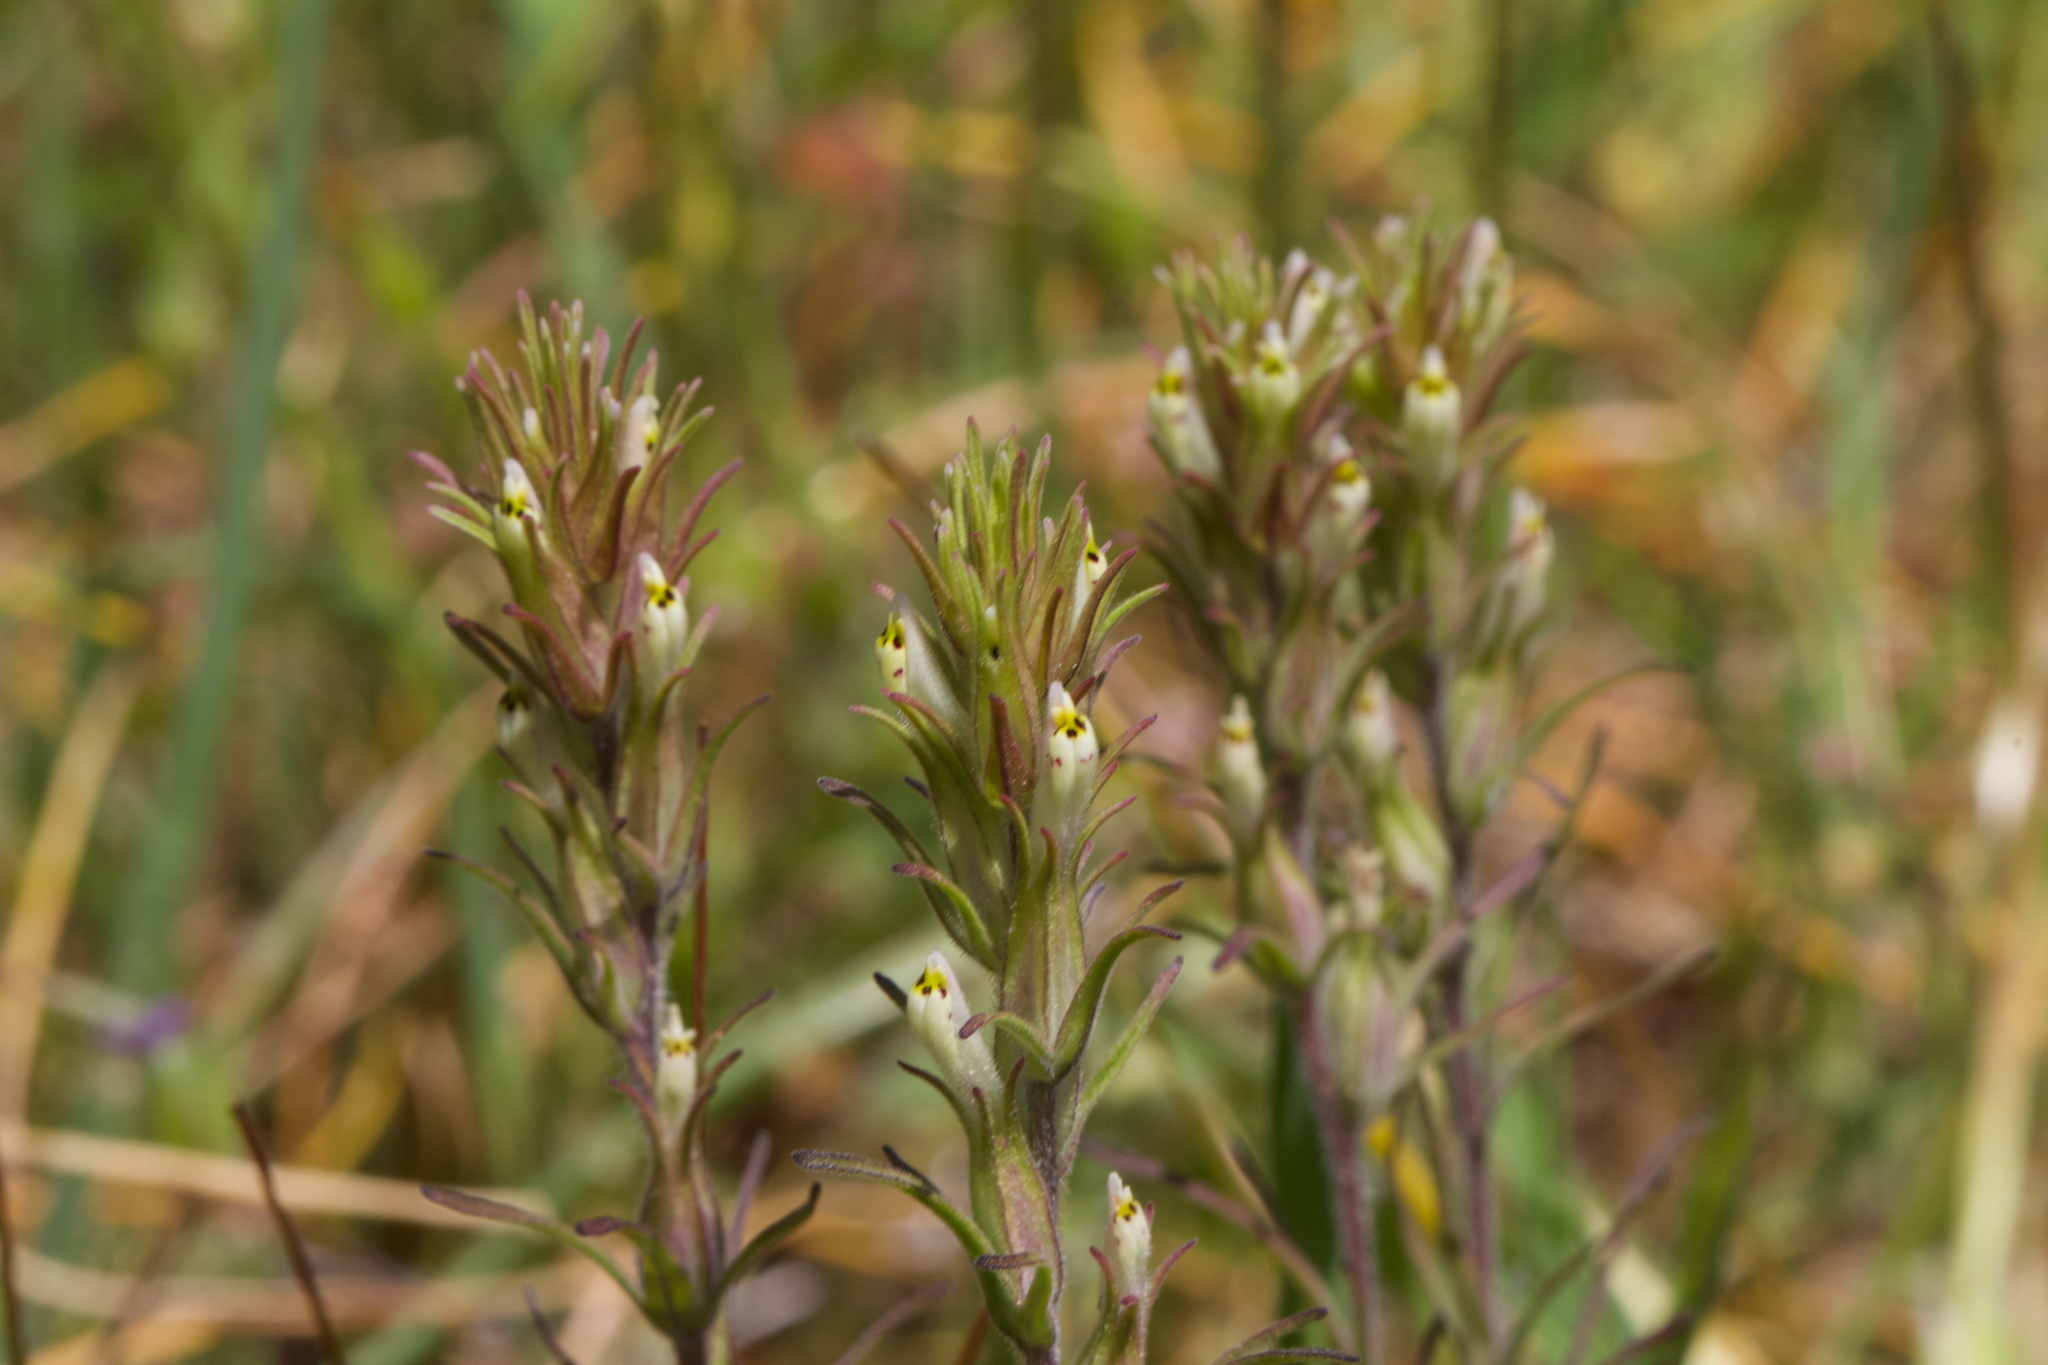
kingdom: Plantae
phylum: Tracheophyta
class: Magnoliopsida
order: Lamiales
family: Orobanchaceae
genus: Castilleja
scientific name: Castilleja attenuata
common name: Valley tassels
